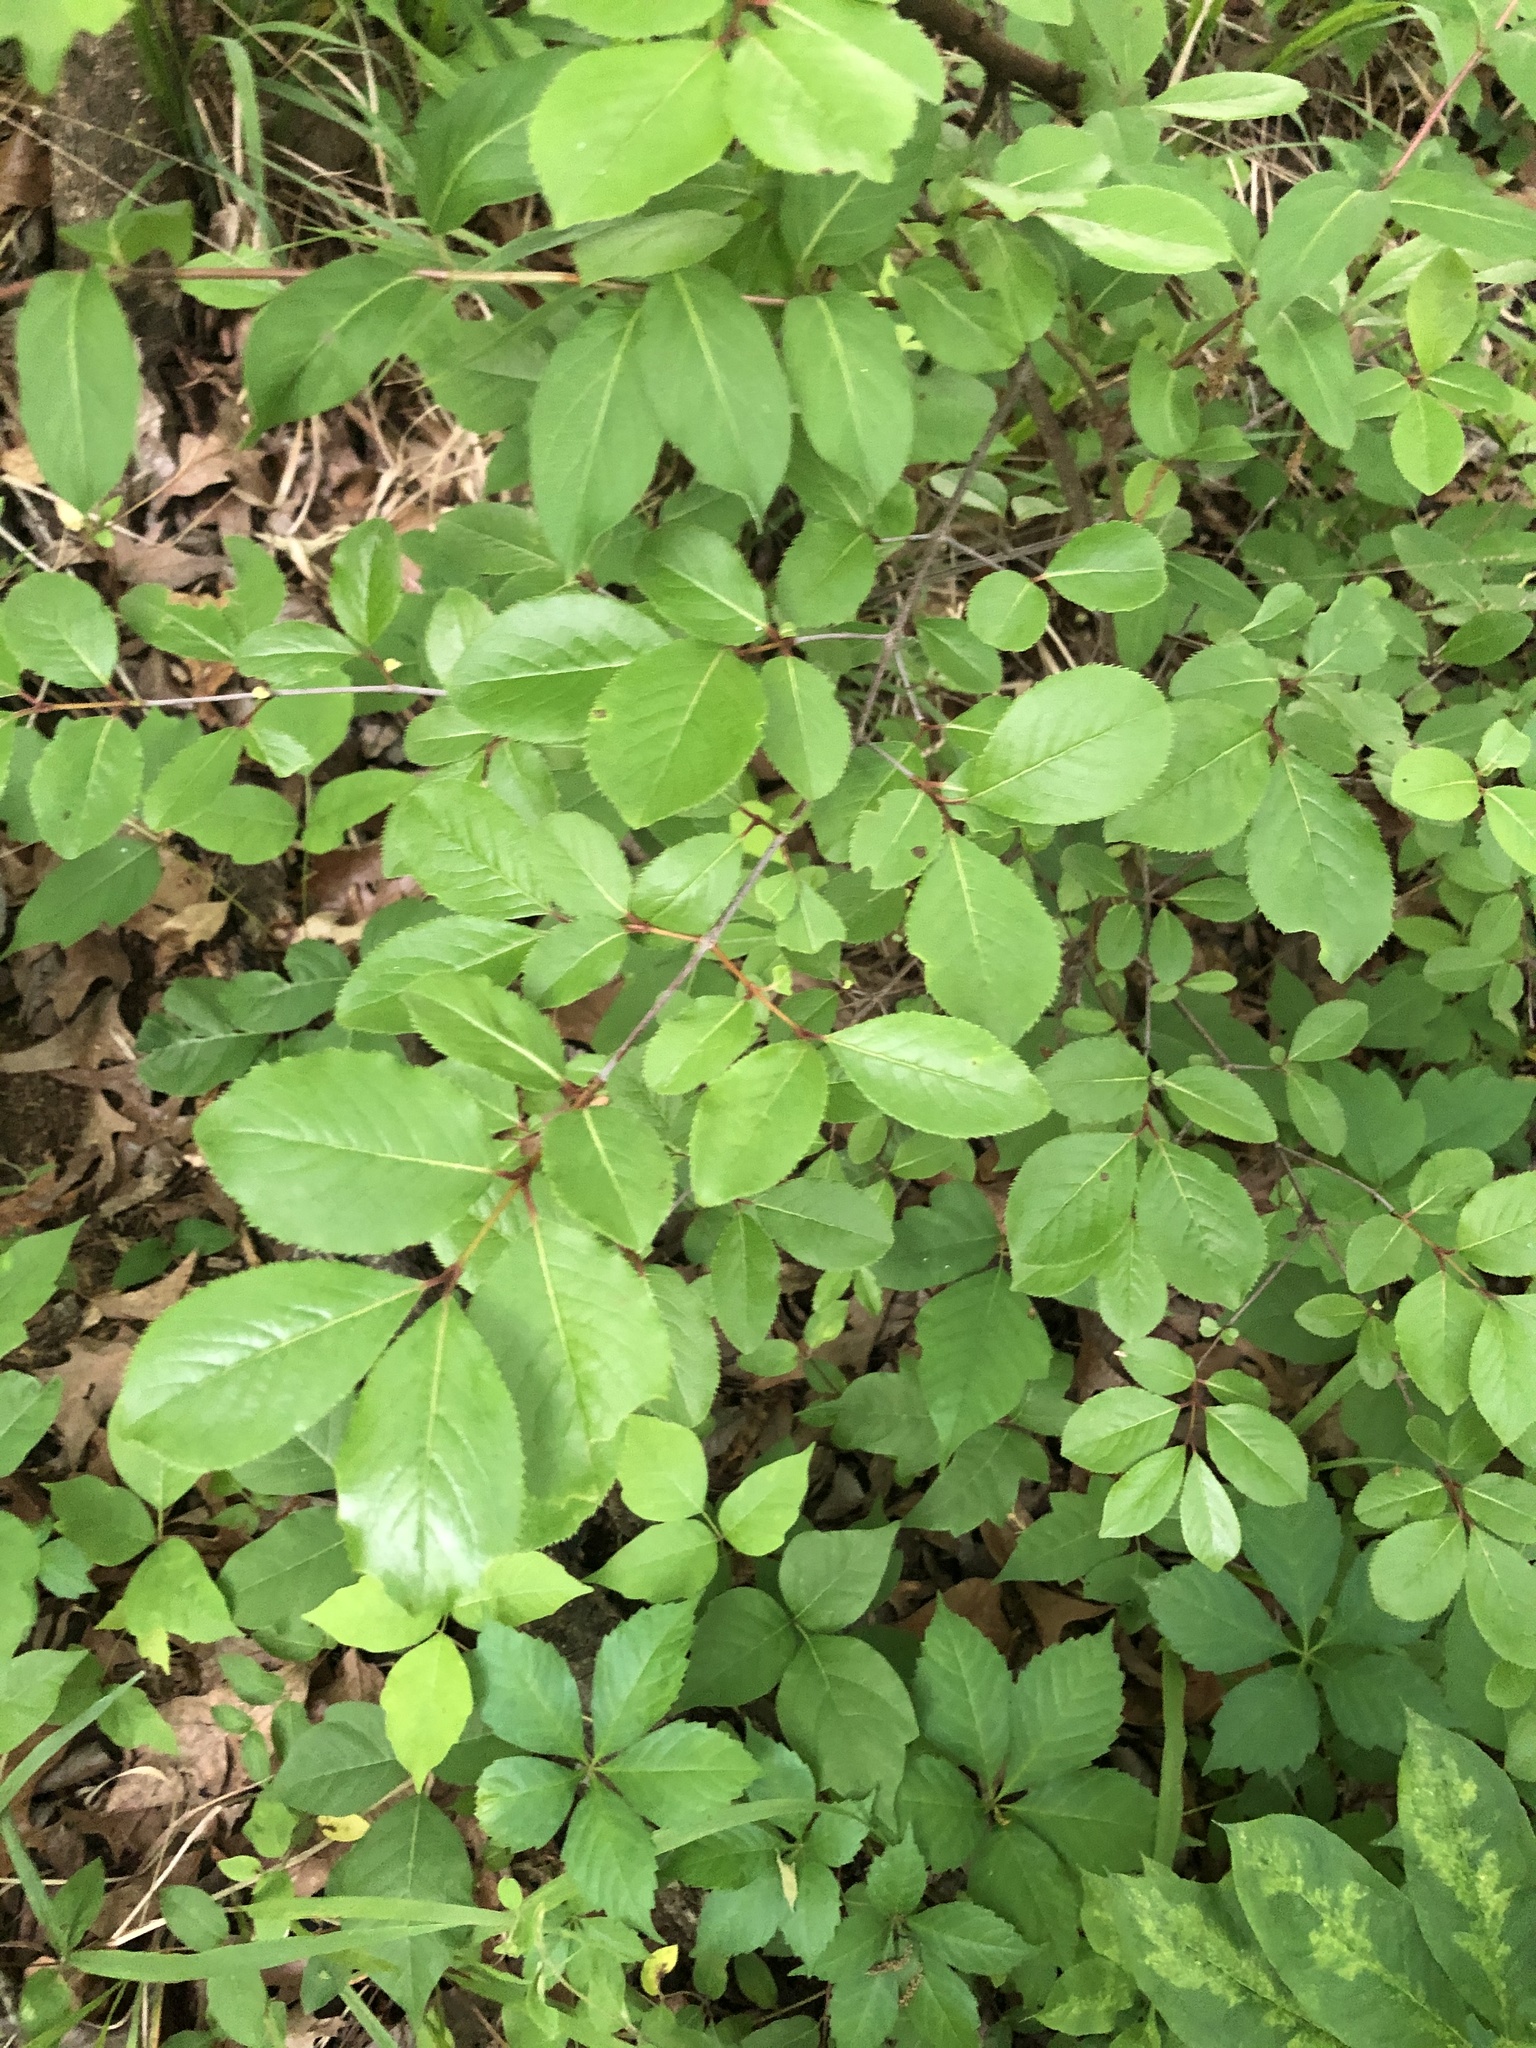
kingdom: Plantae
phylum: Tracheophyta
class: Magnoliopsida
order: Dipsacales
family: Viburnaceae
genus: Viburnum
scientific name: Viburnum rufidulum
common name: Blue haw
